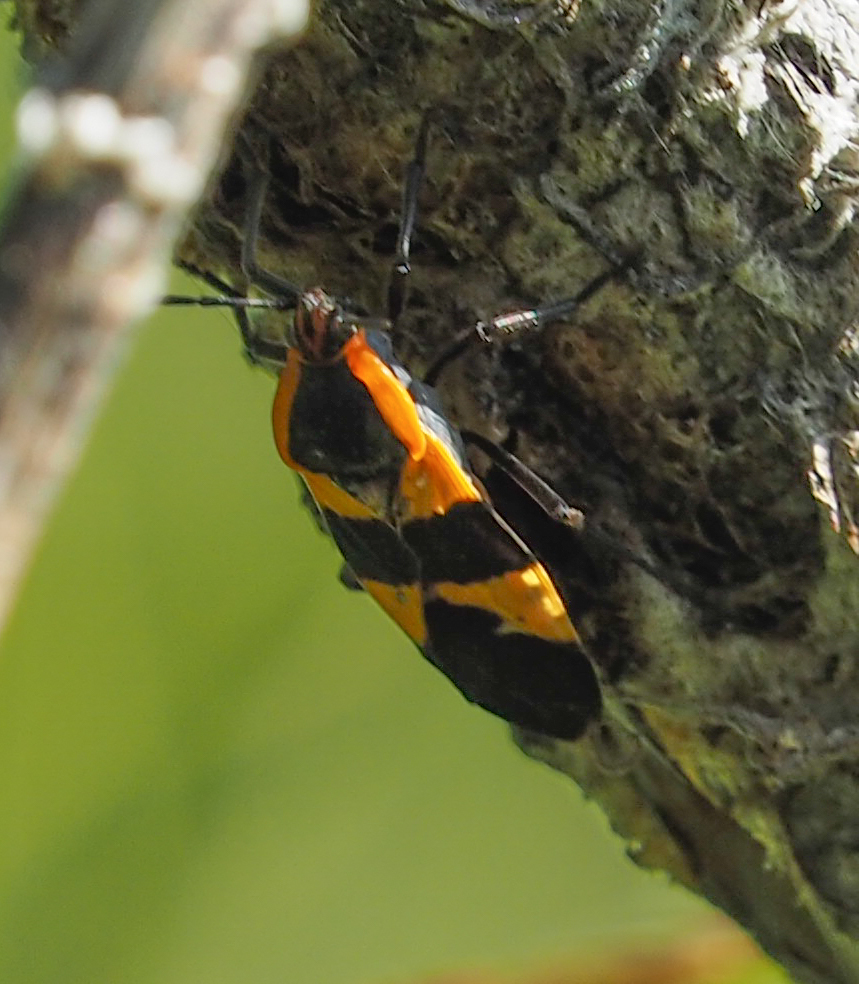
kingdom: Animalia
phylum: Arthropoda
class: Insecta
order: Hemiptera
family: Lygaeidae
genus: Oncopeltus
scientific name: Oncopeltus fasciatus
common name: Large milkweed bug
